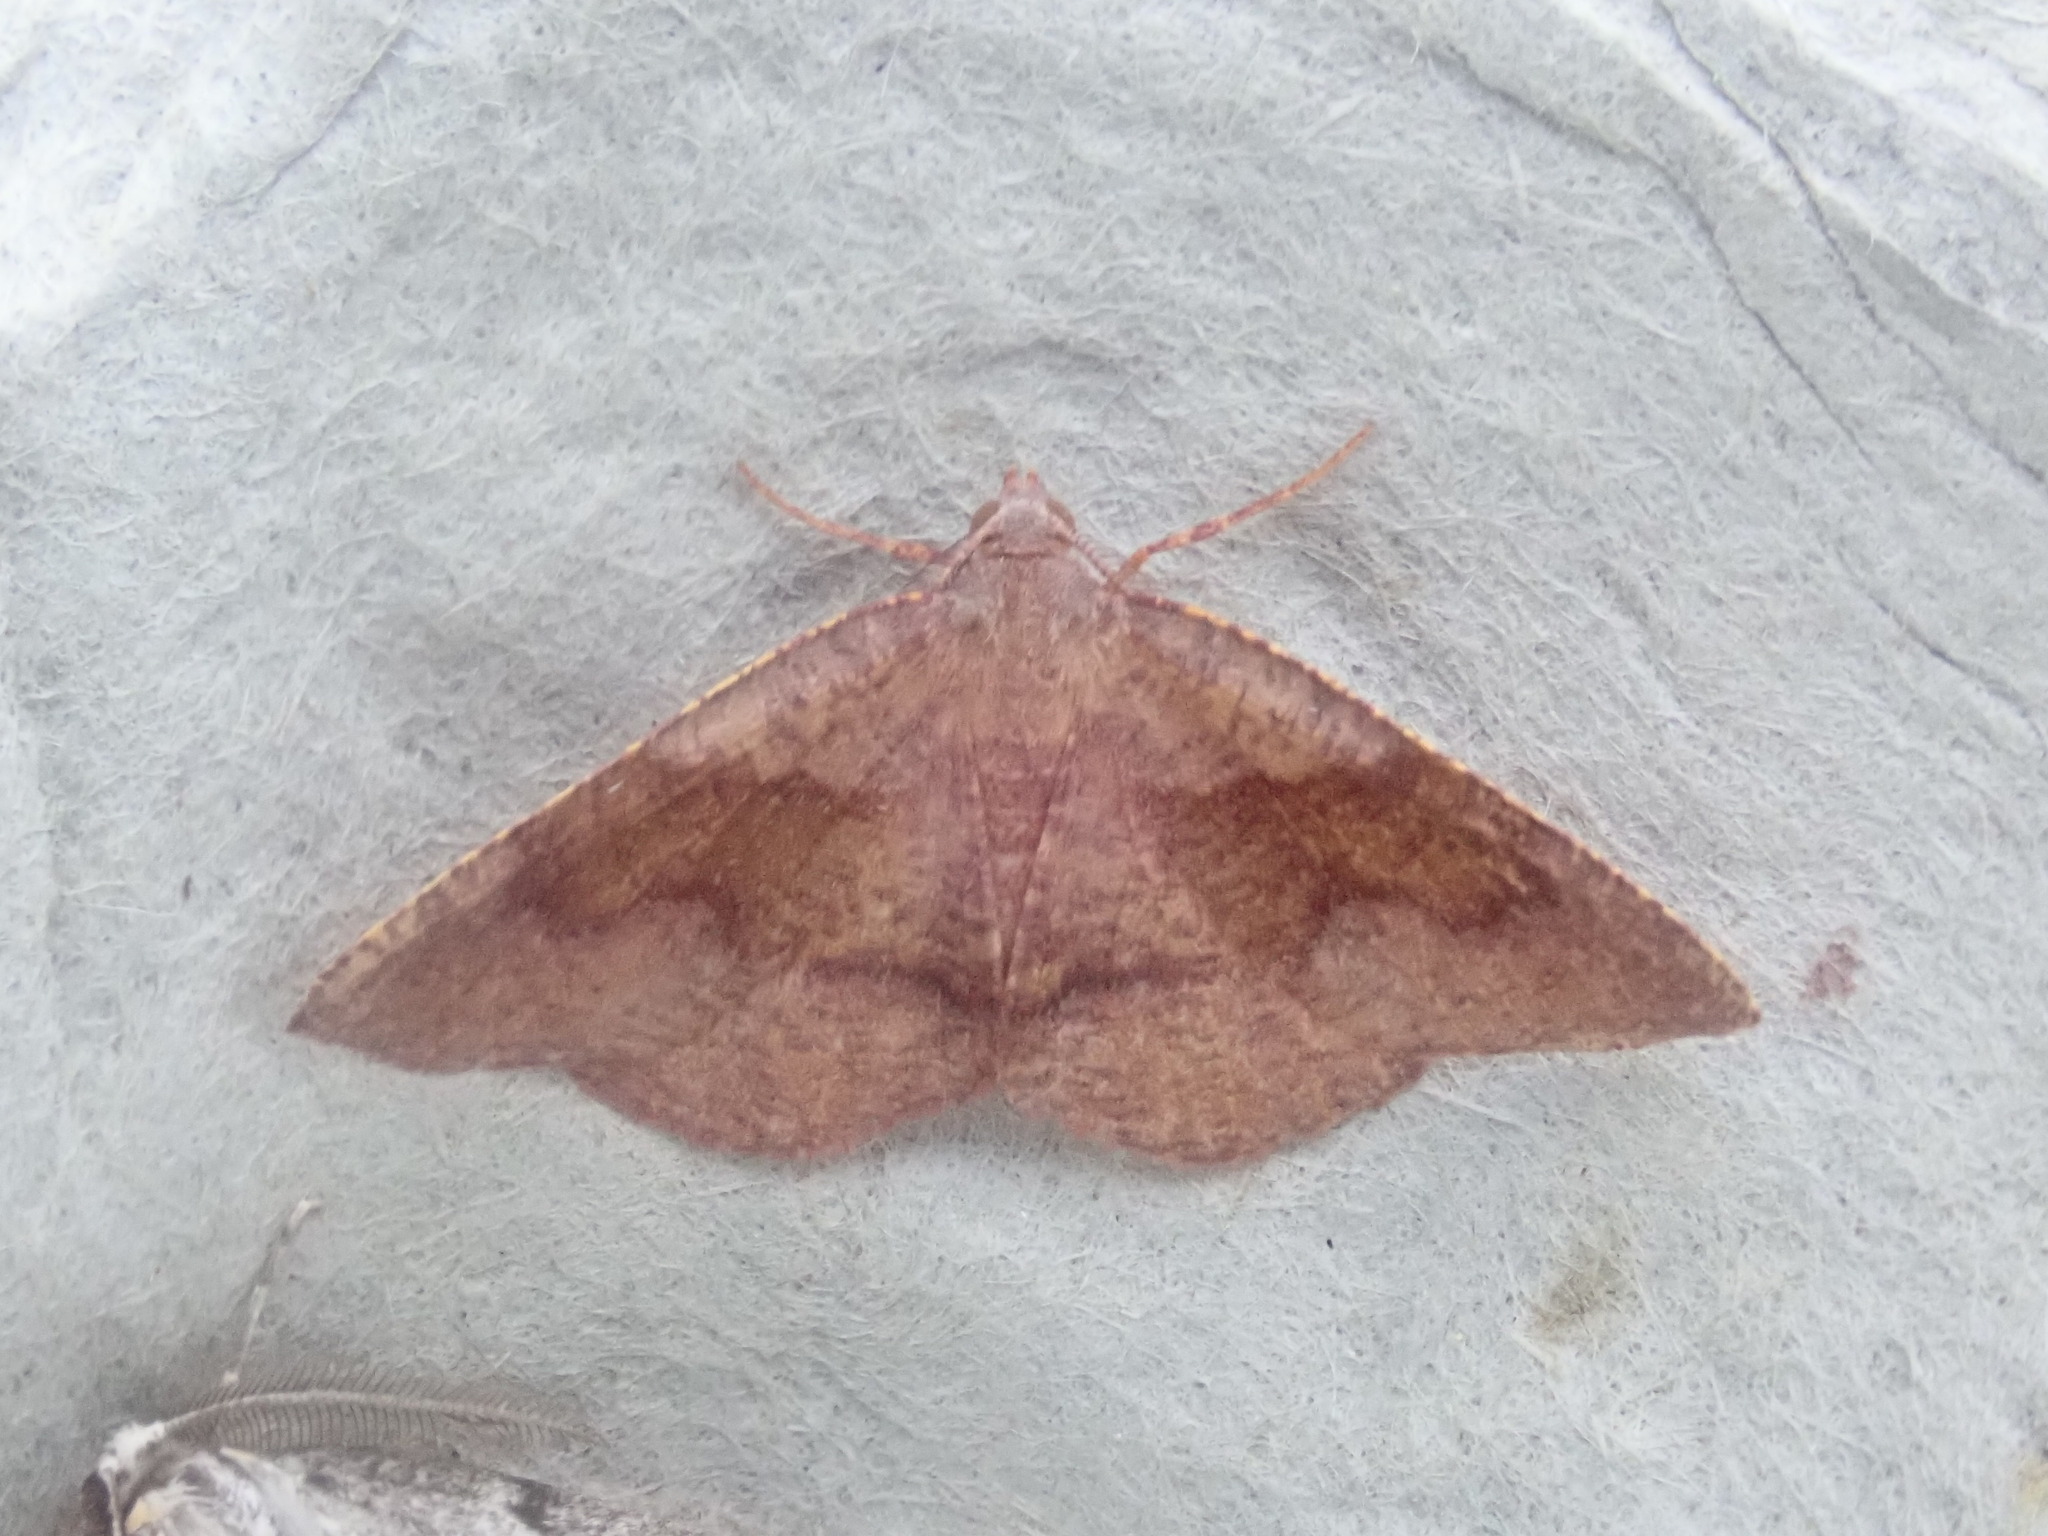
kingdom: Animalia
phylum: Arthropoda
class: Insecta
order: Lepidoptera
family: Geometridae
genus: Plagodis
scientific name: Plagodis pulveraria
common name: Barred umber
